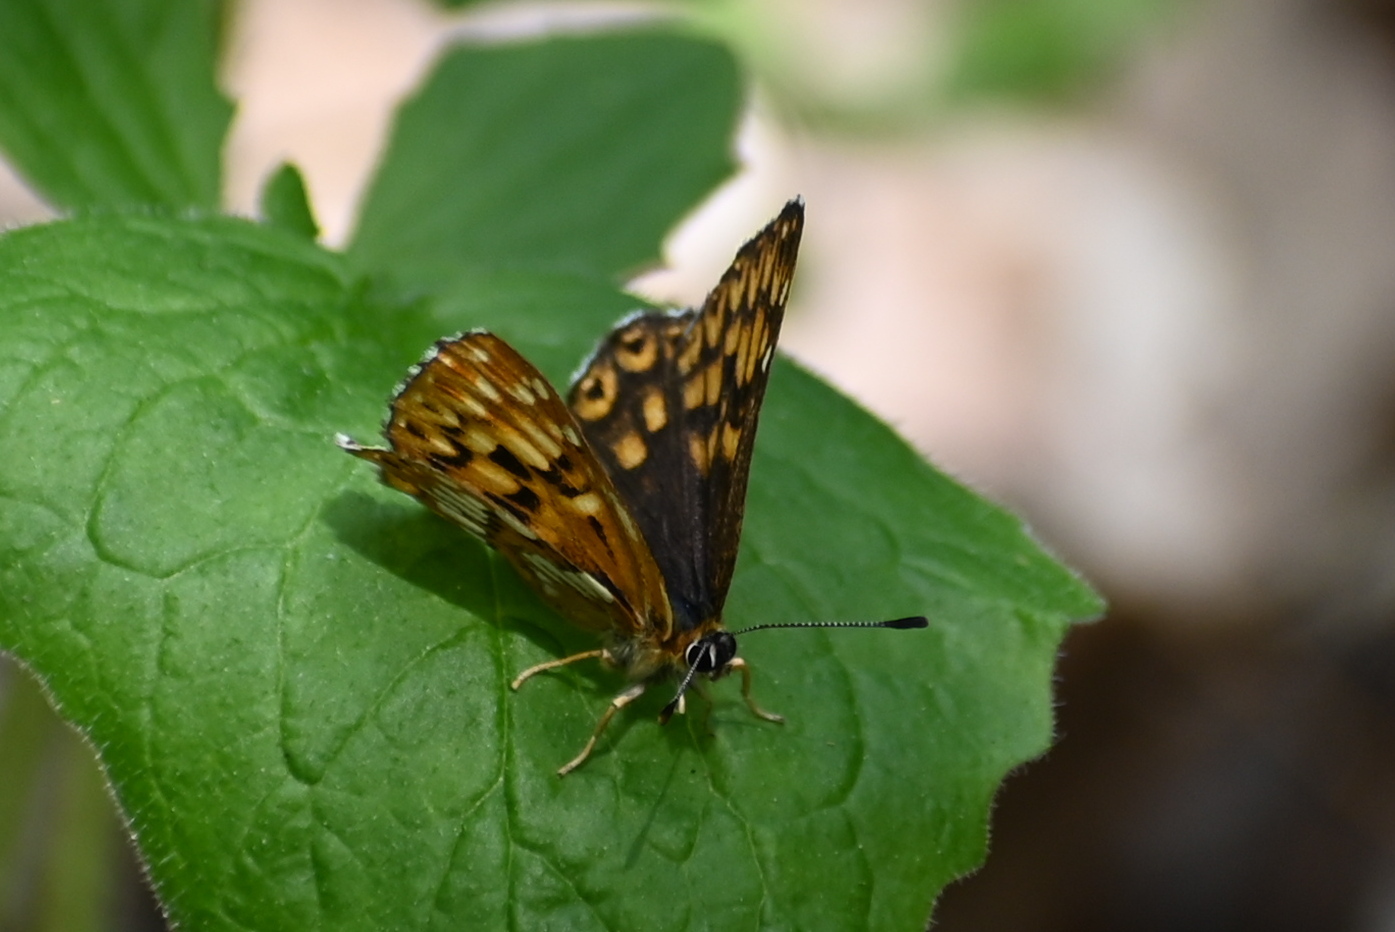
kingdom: Animalia
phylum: Arthropoda
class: Insecta
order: Lepidoptera
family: Riodinidae
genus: Hamearis
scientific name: Hamearis lucina
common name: Duke of burgundy fritillary
